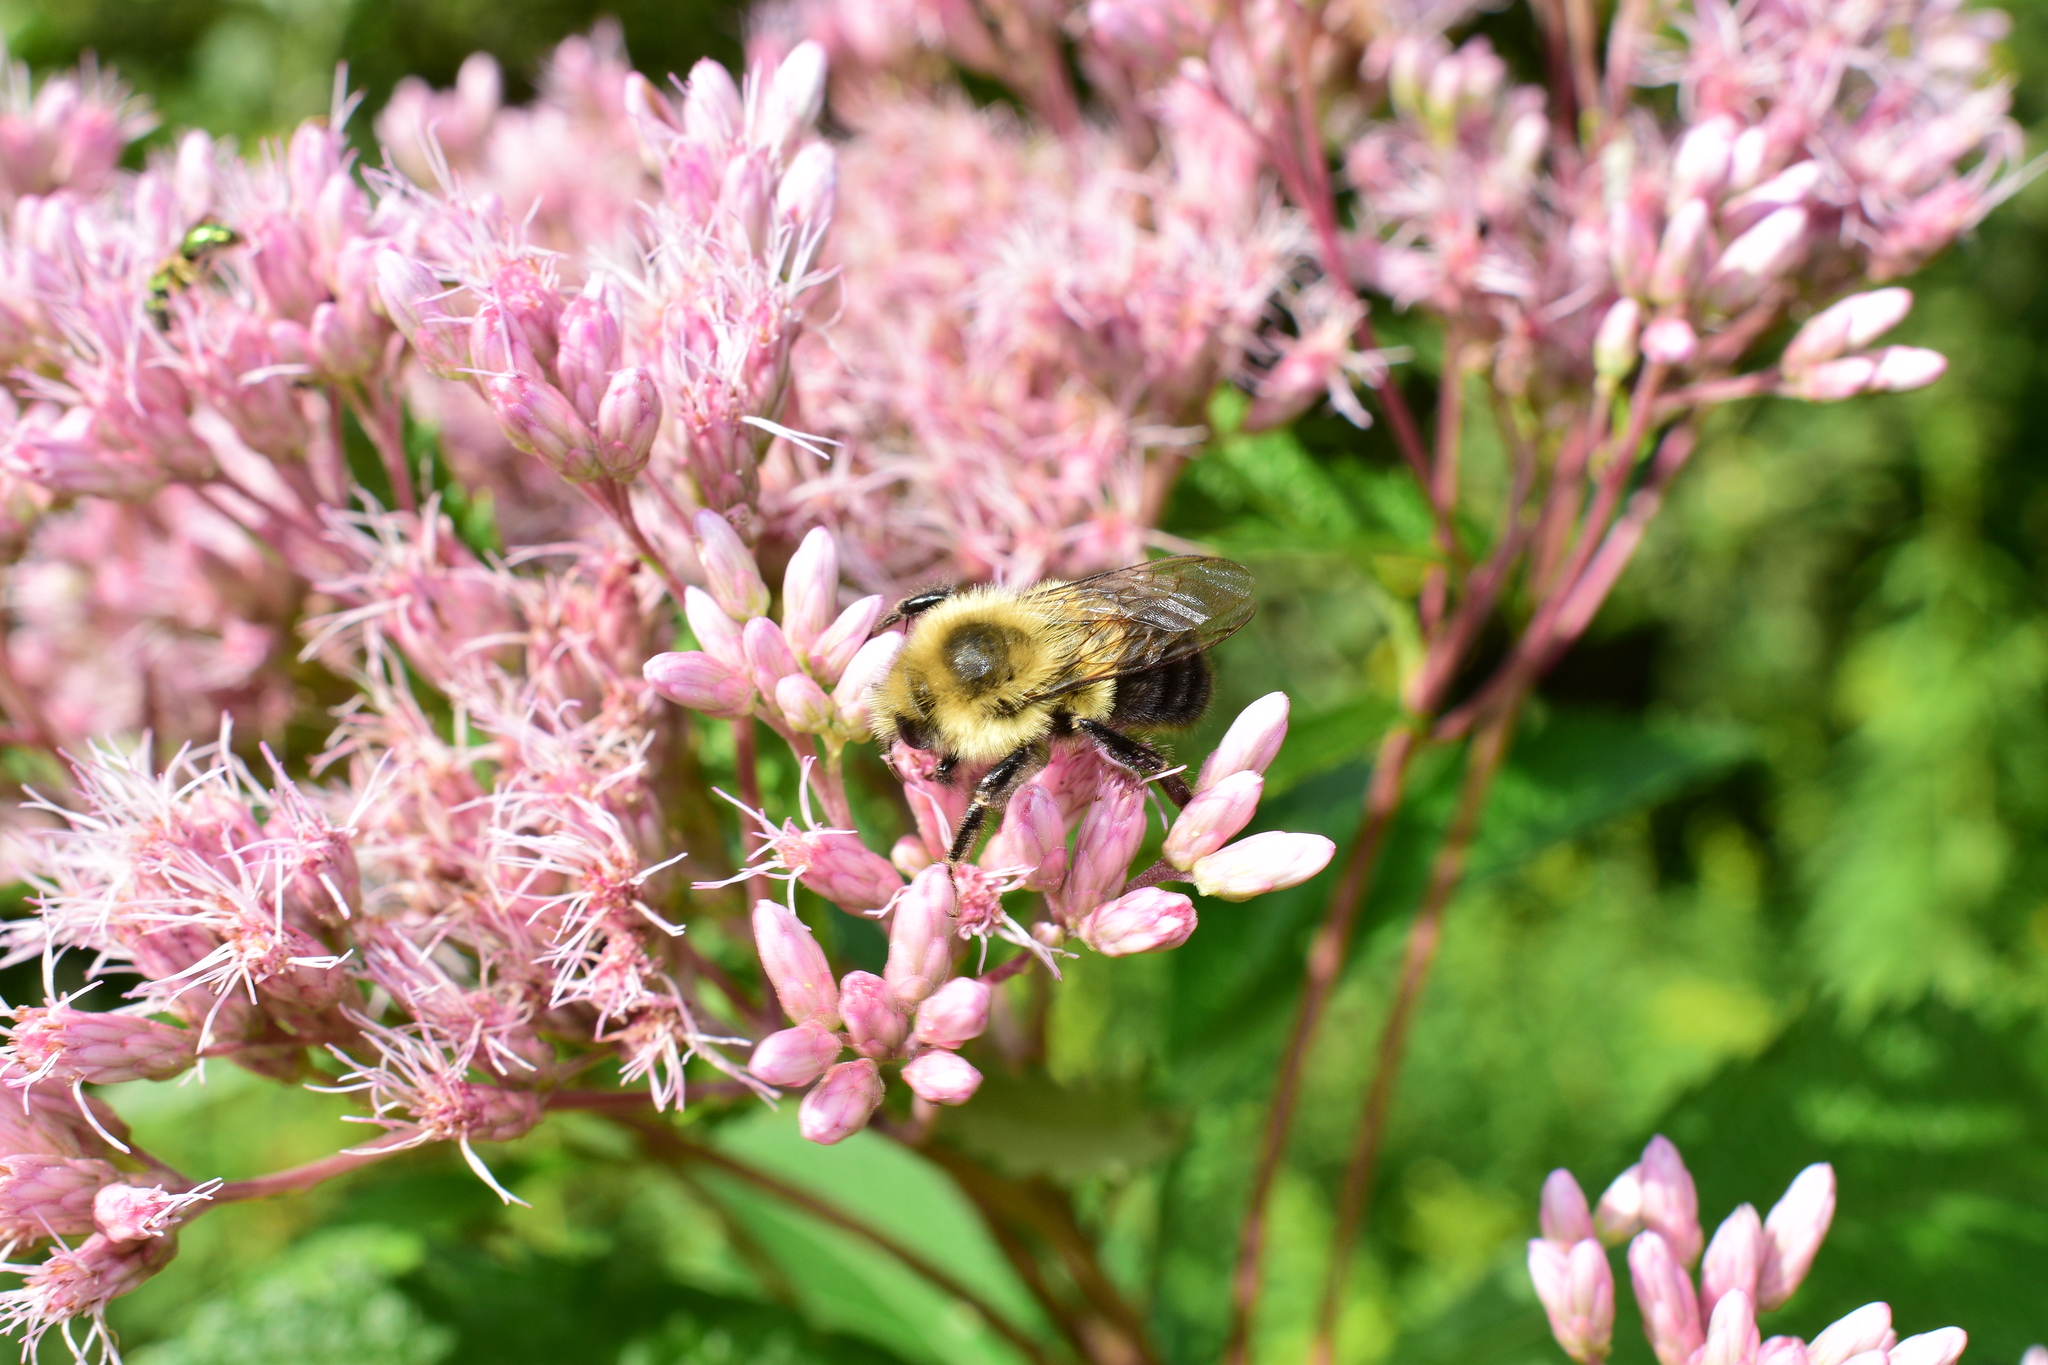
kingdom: Animalia
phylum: Arthropoda
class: Insecta
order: Hymenoptera
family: Apidae
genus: Bombus
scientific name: Bombus impatiens
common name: Common eastern bumble bee
